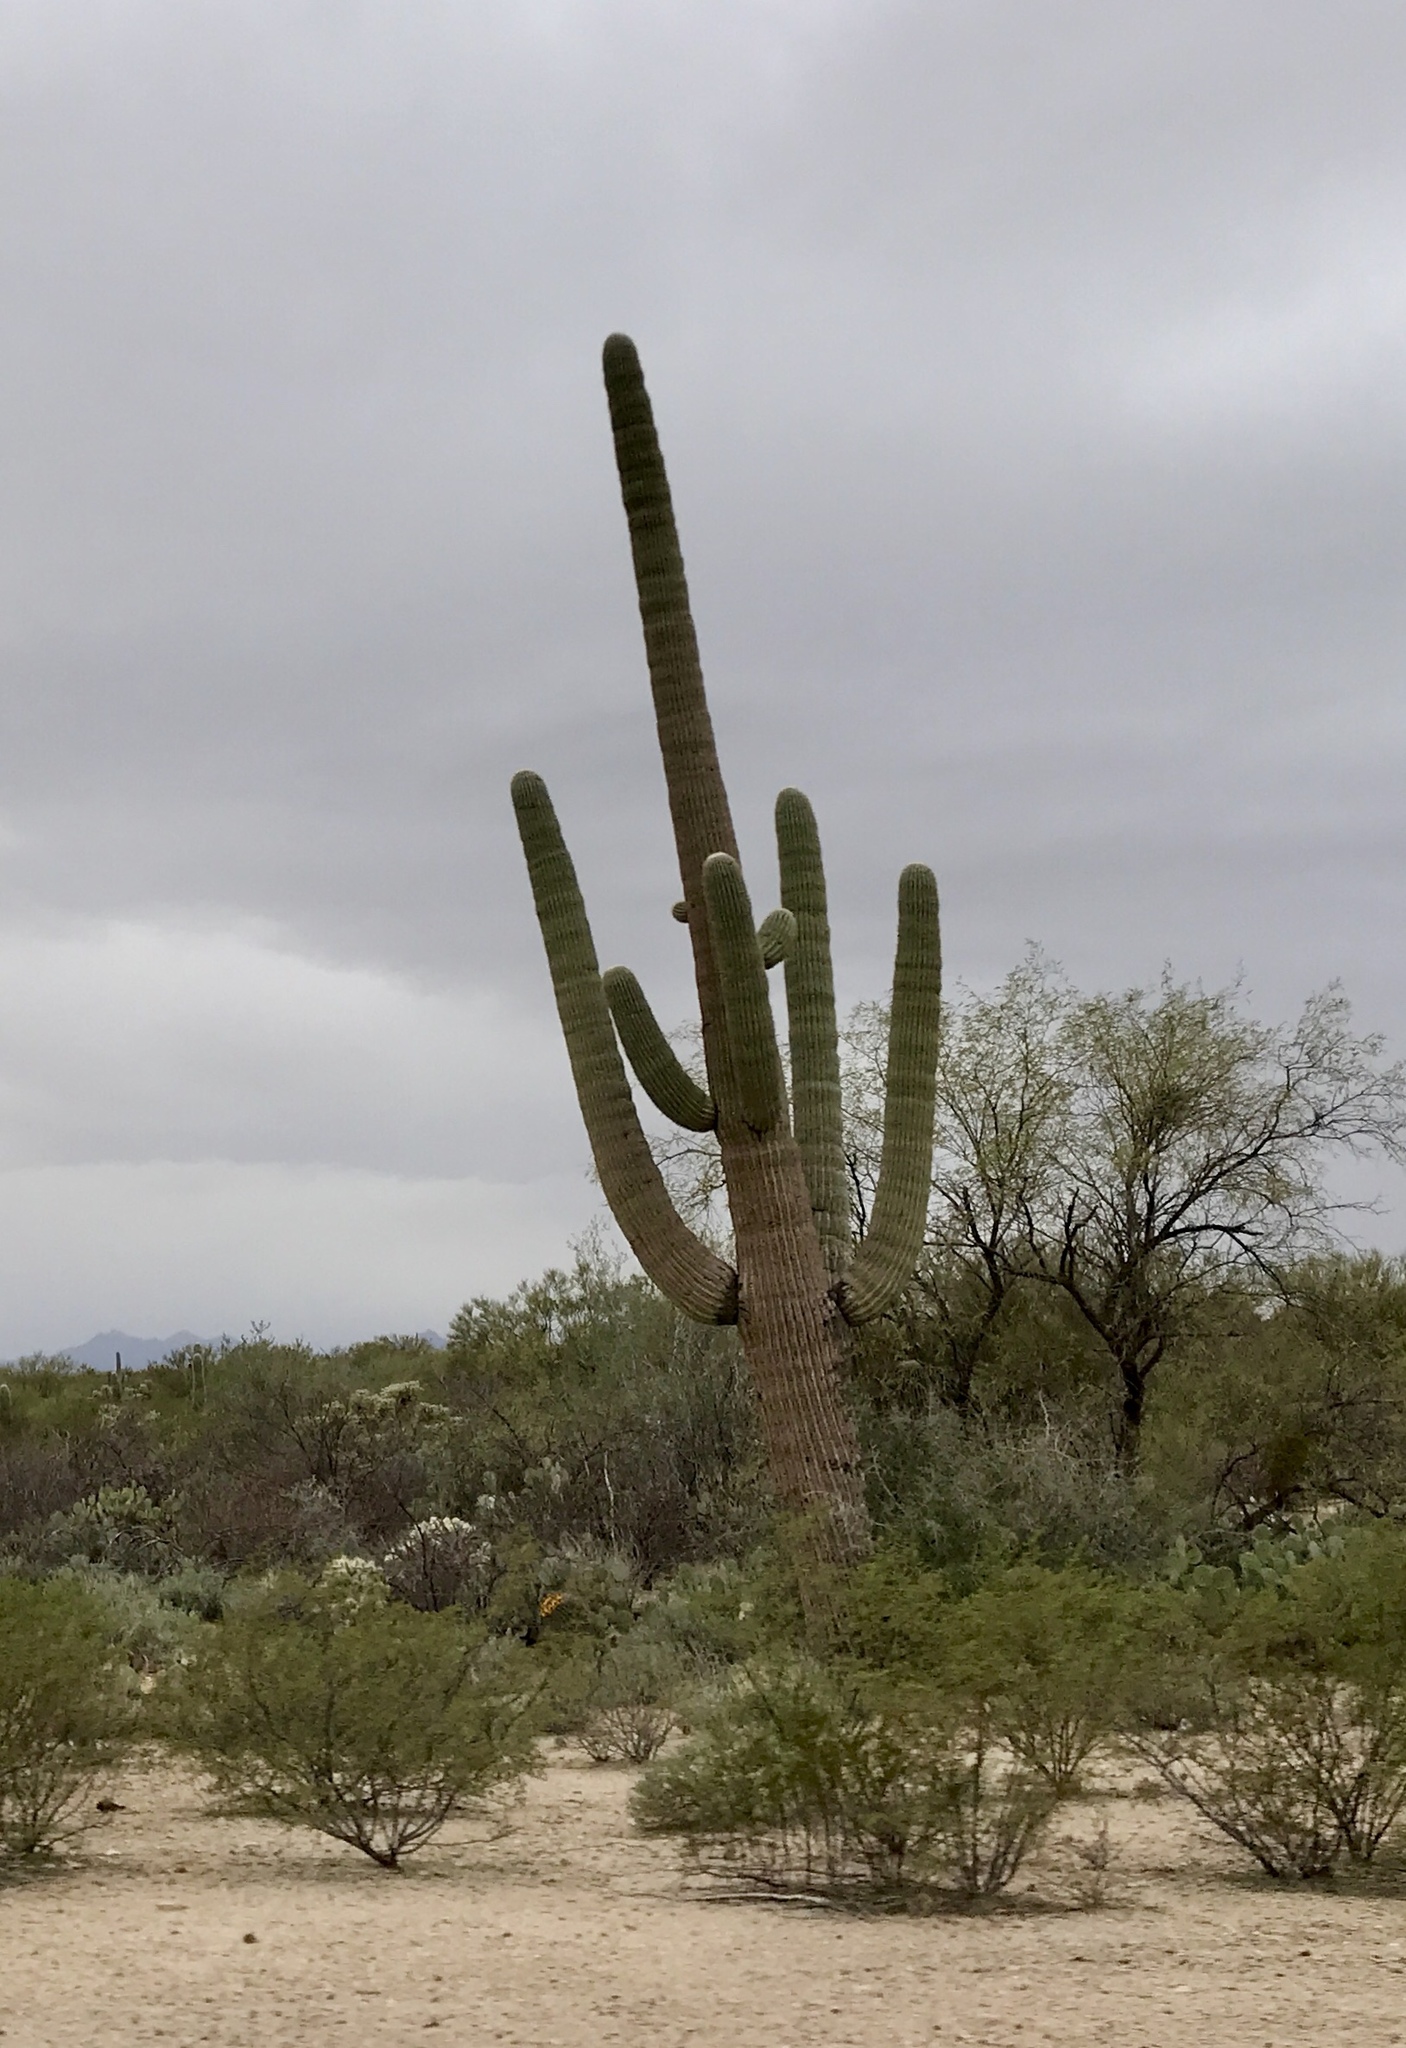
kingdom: Plantae
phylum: Tracheophyta
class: Magnoliopsida
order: Caryophyllales
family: Cactaceae
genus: Carnegiea
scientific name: Carnegiea gigantea
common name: Saguaro
